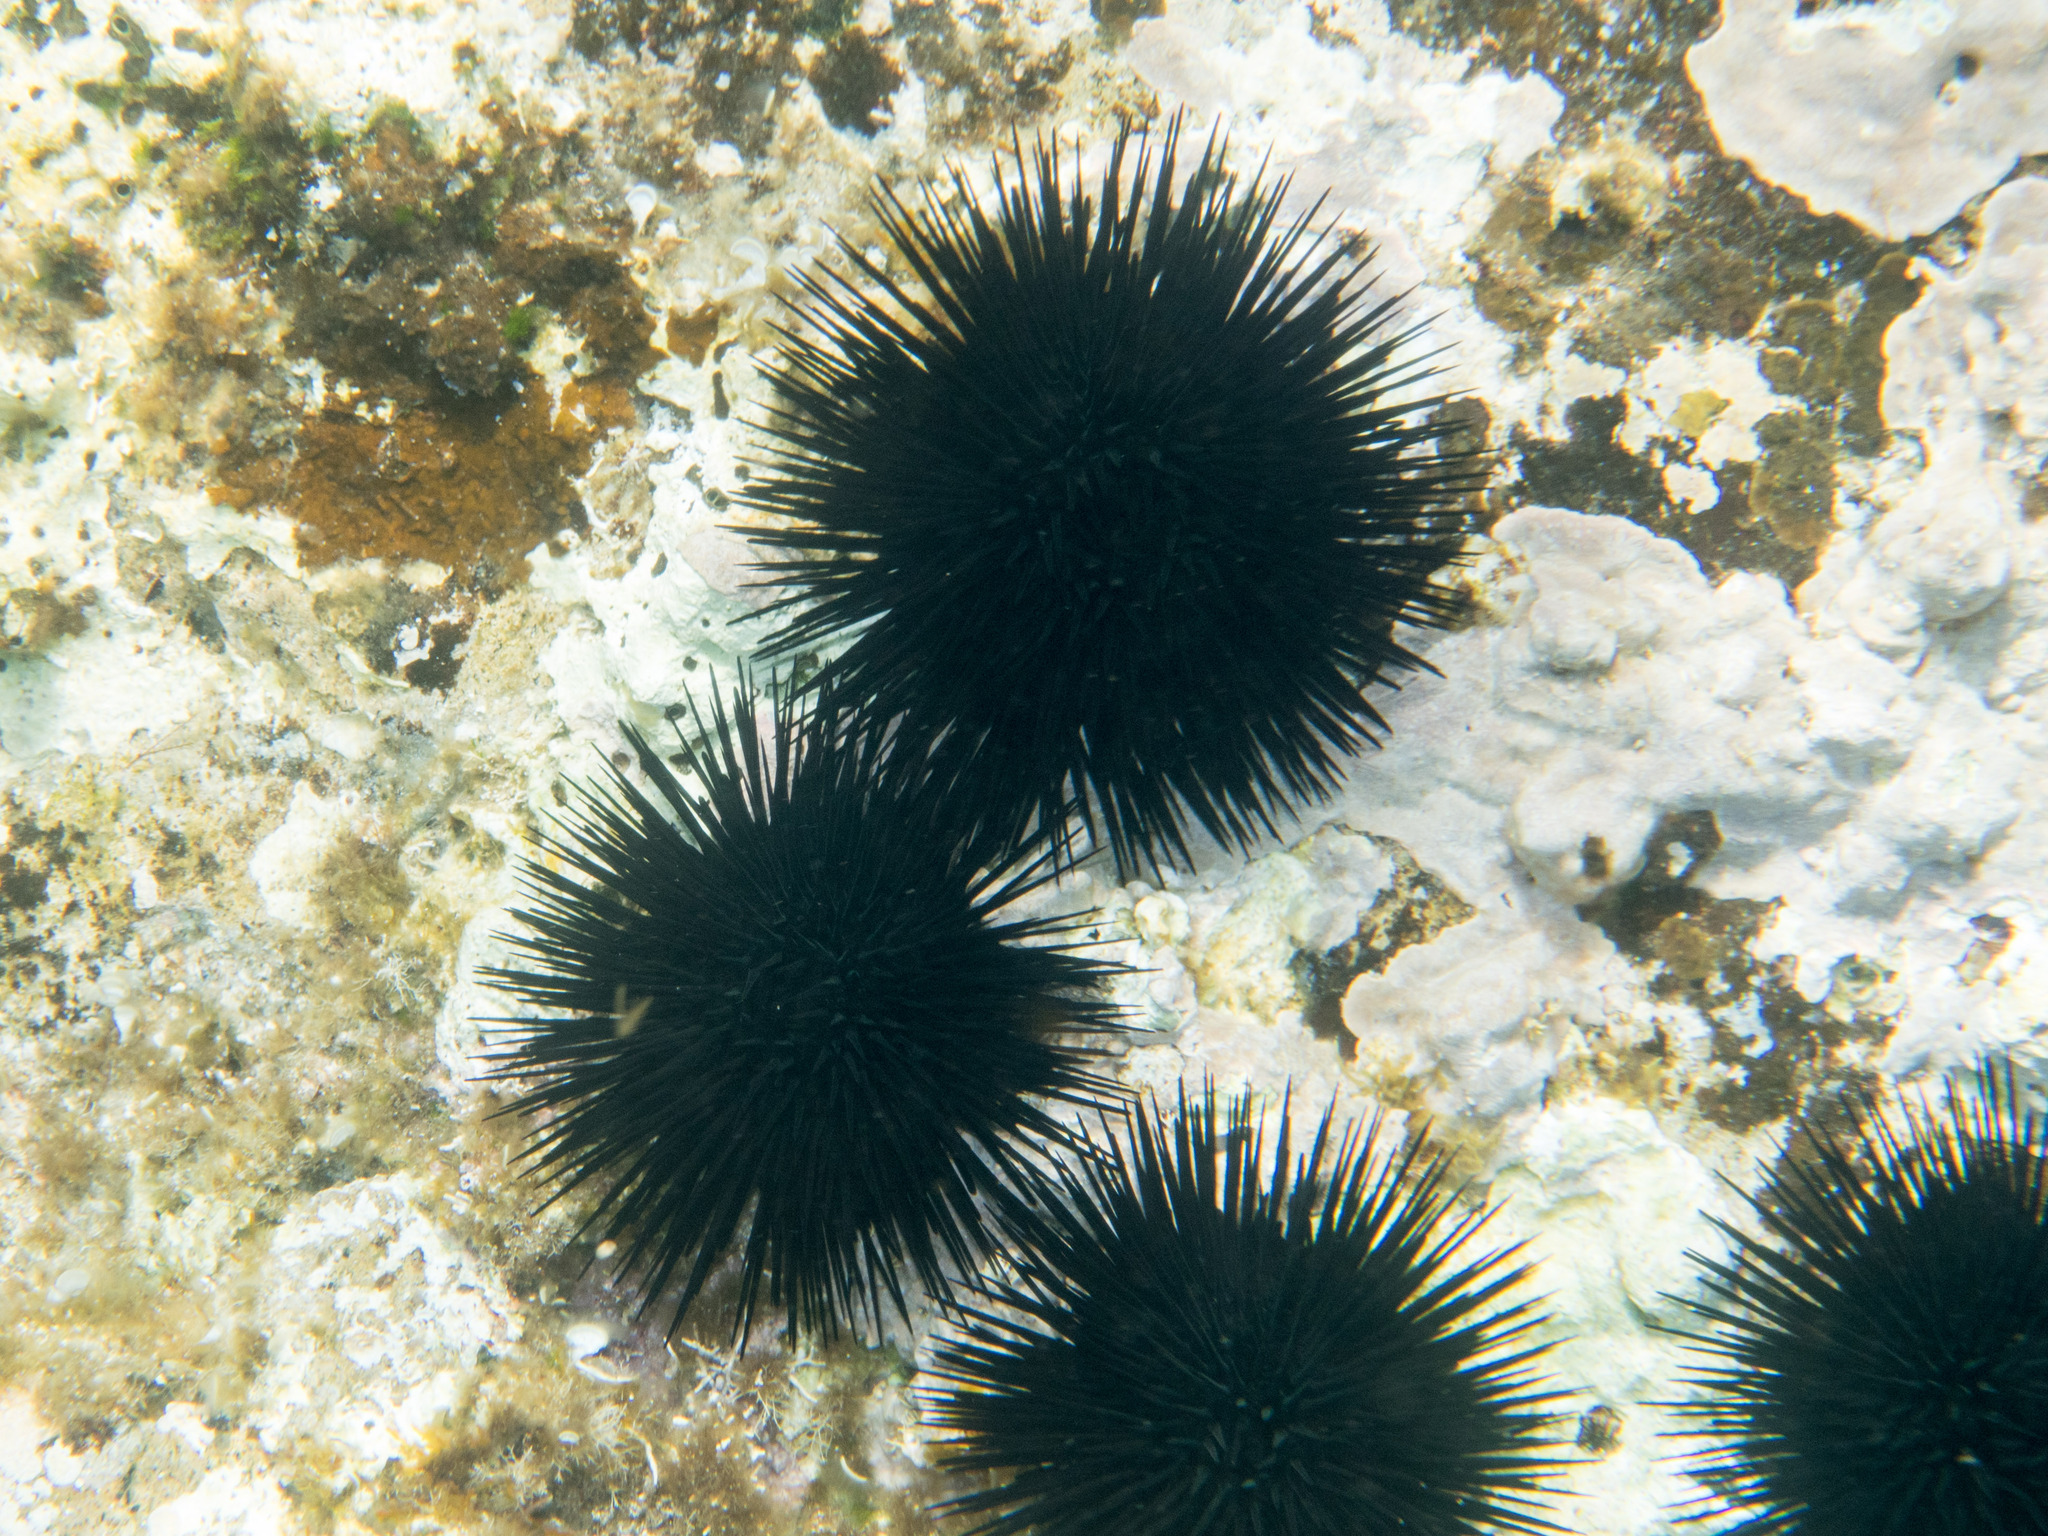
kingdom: Animalia
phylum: Echinodermata
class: Echinoidea
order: Arbacioida
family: Arbaciidae
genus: Arbacia
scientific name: Arbacia lixula
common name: Black sea urchin
